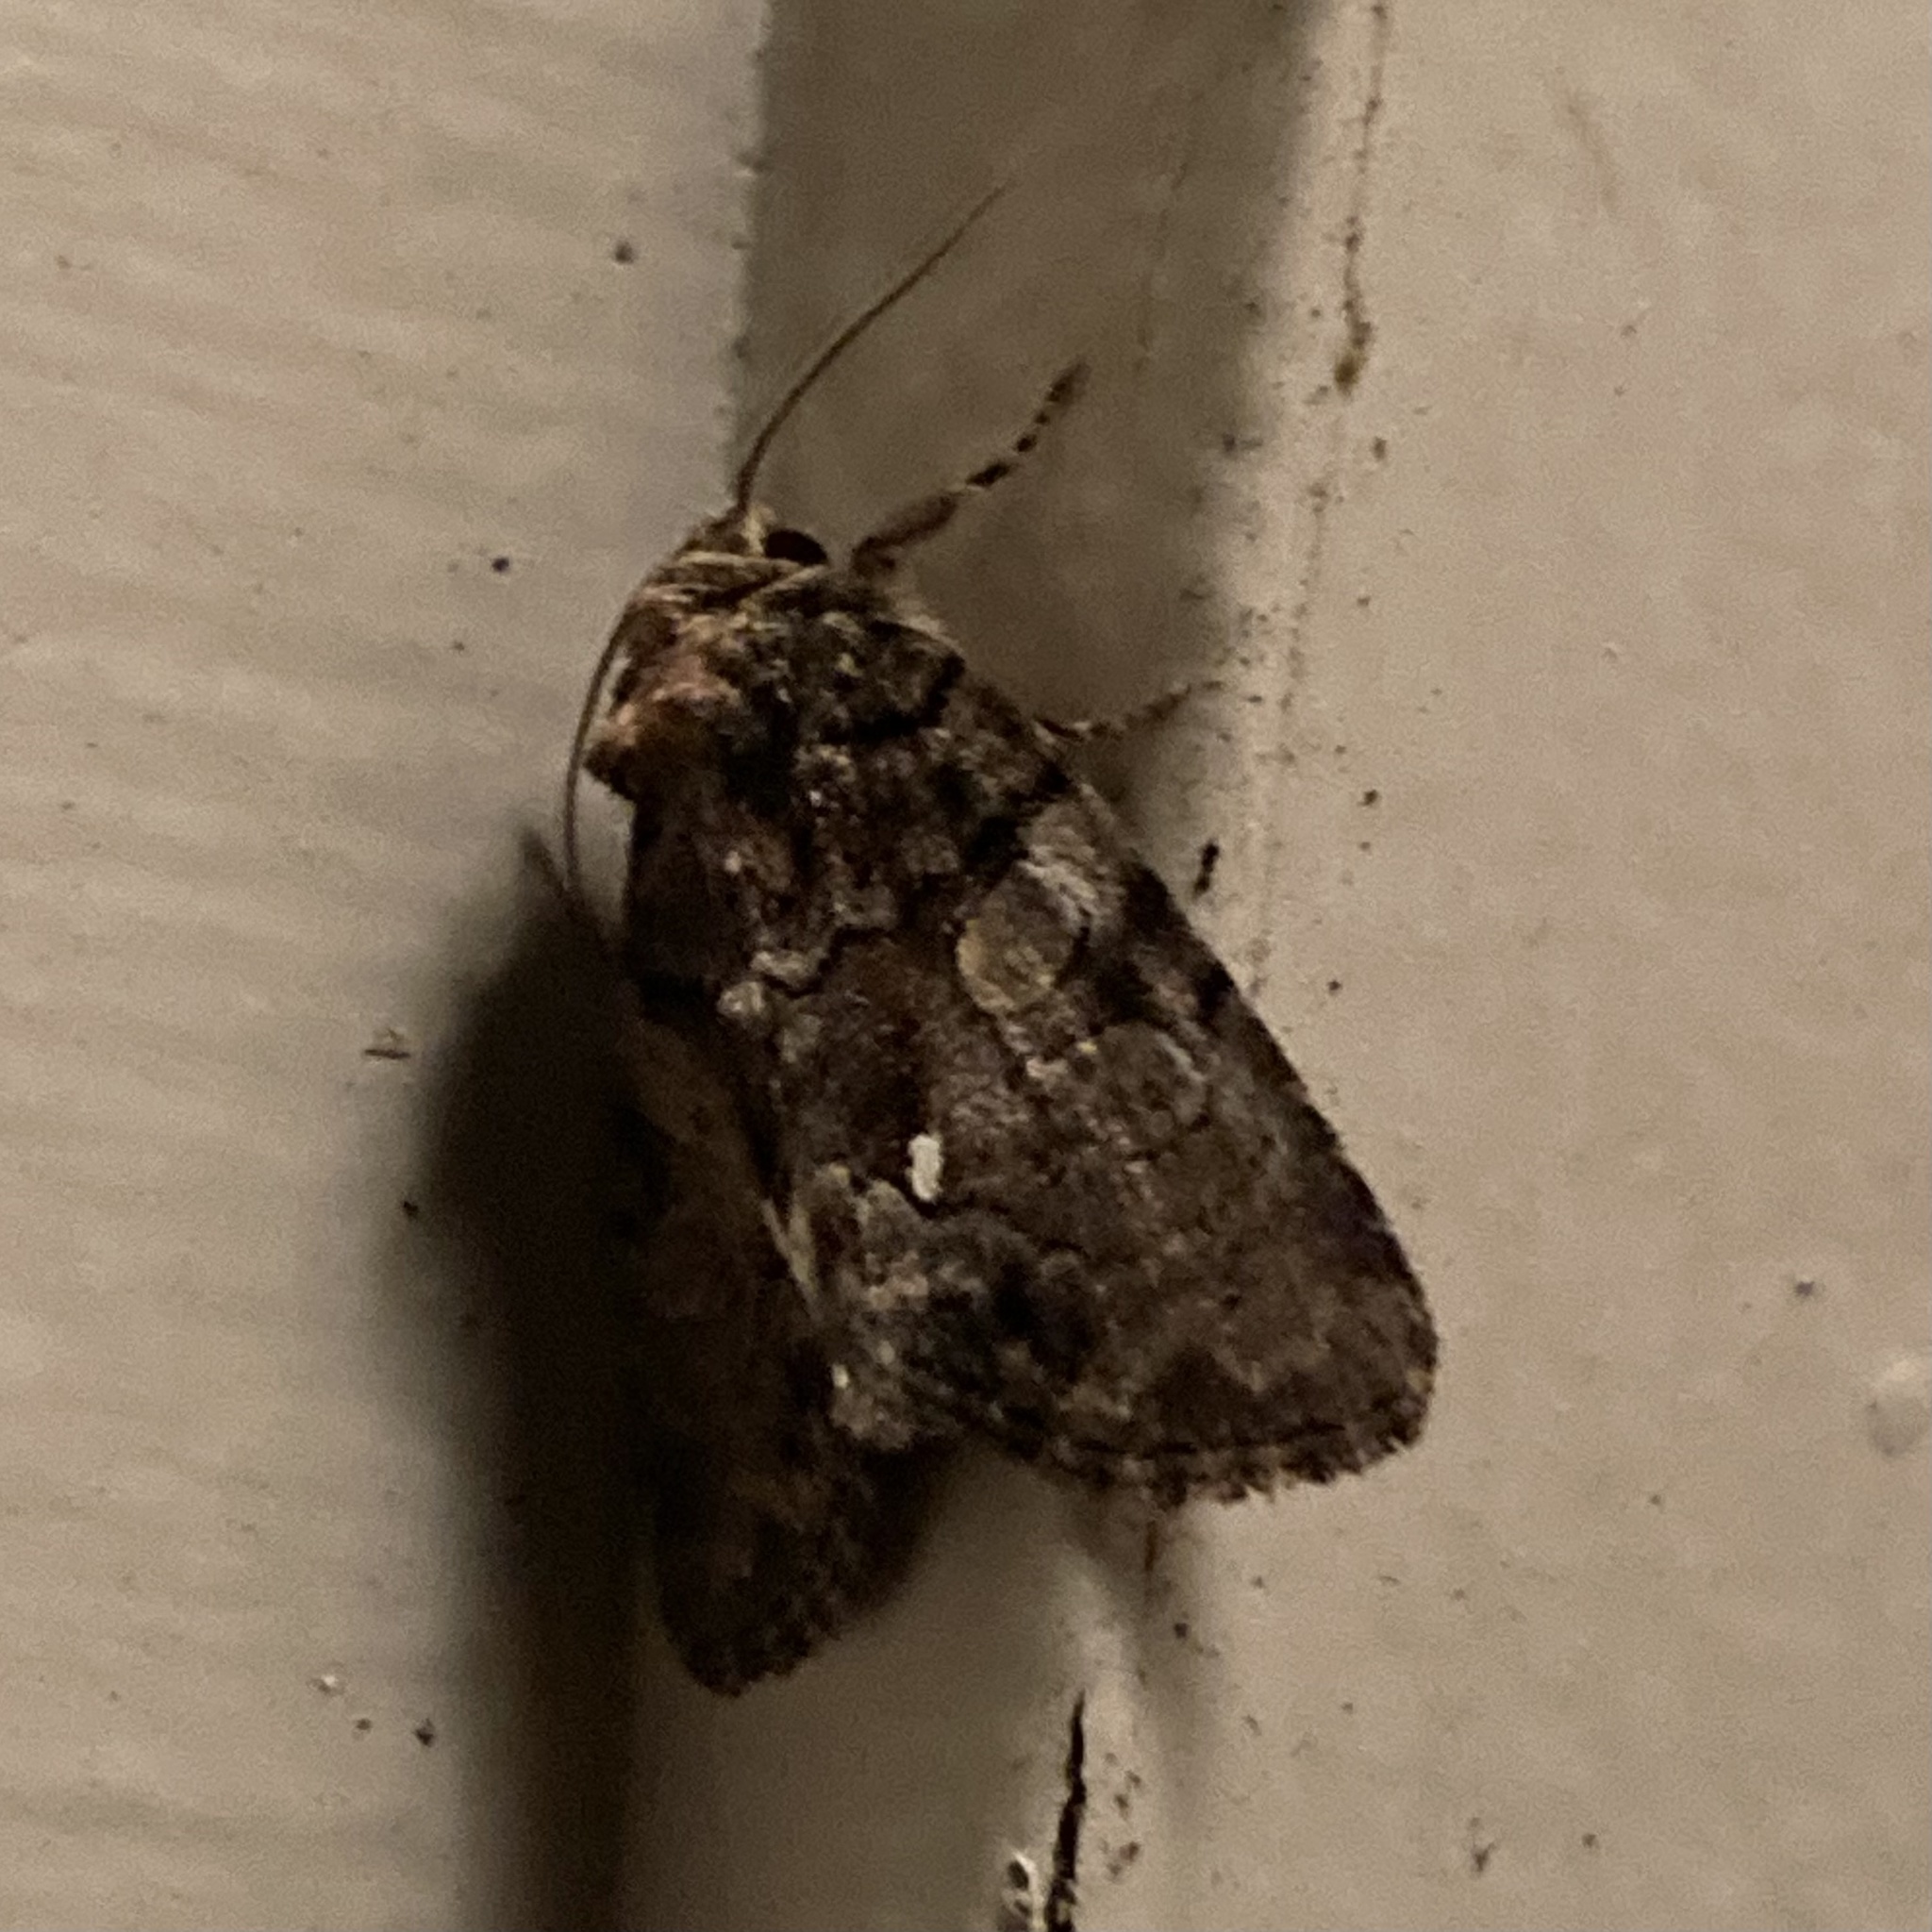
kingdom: Animalia
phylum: Arthropoda
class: Insecta
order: Lepidoptera
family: Noctuidae
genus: Chytonix
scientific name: Chytonix palliatricula
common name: Cloaked marvel
